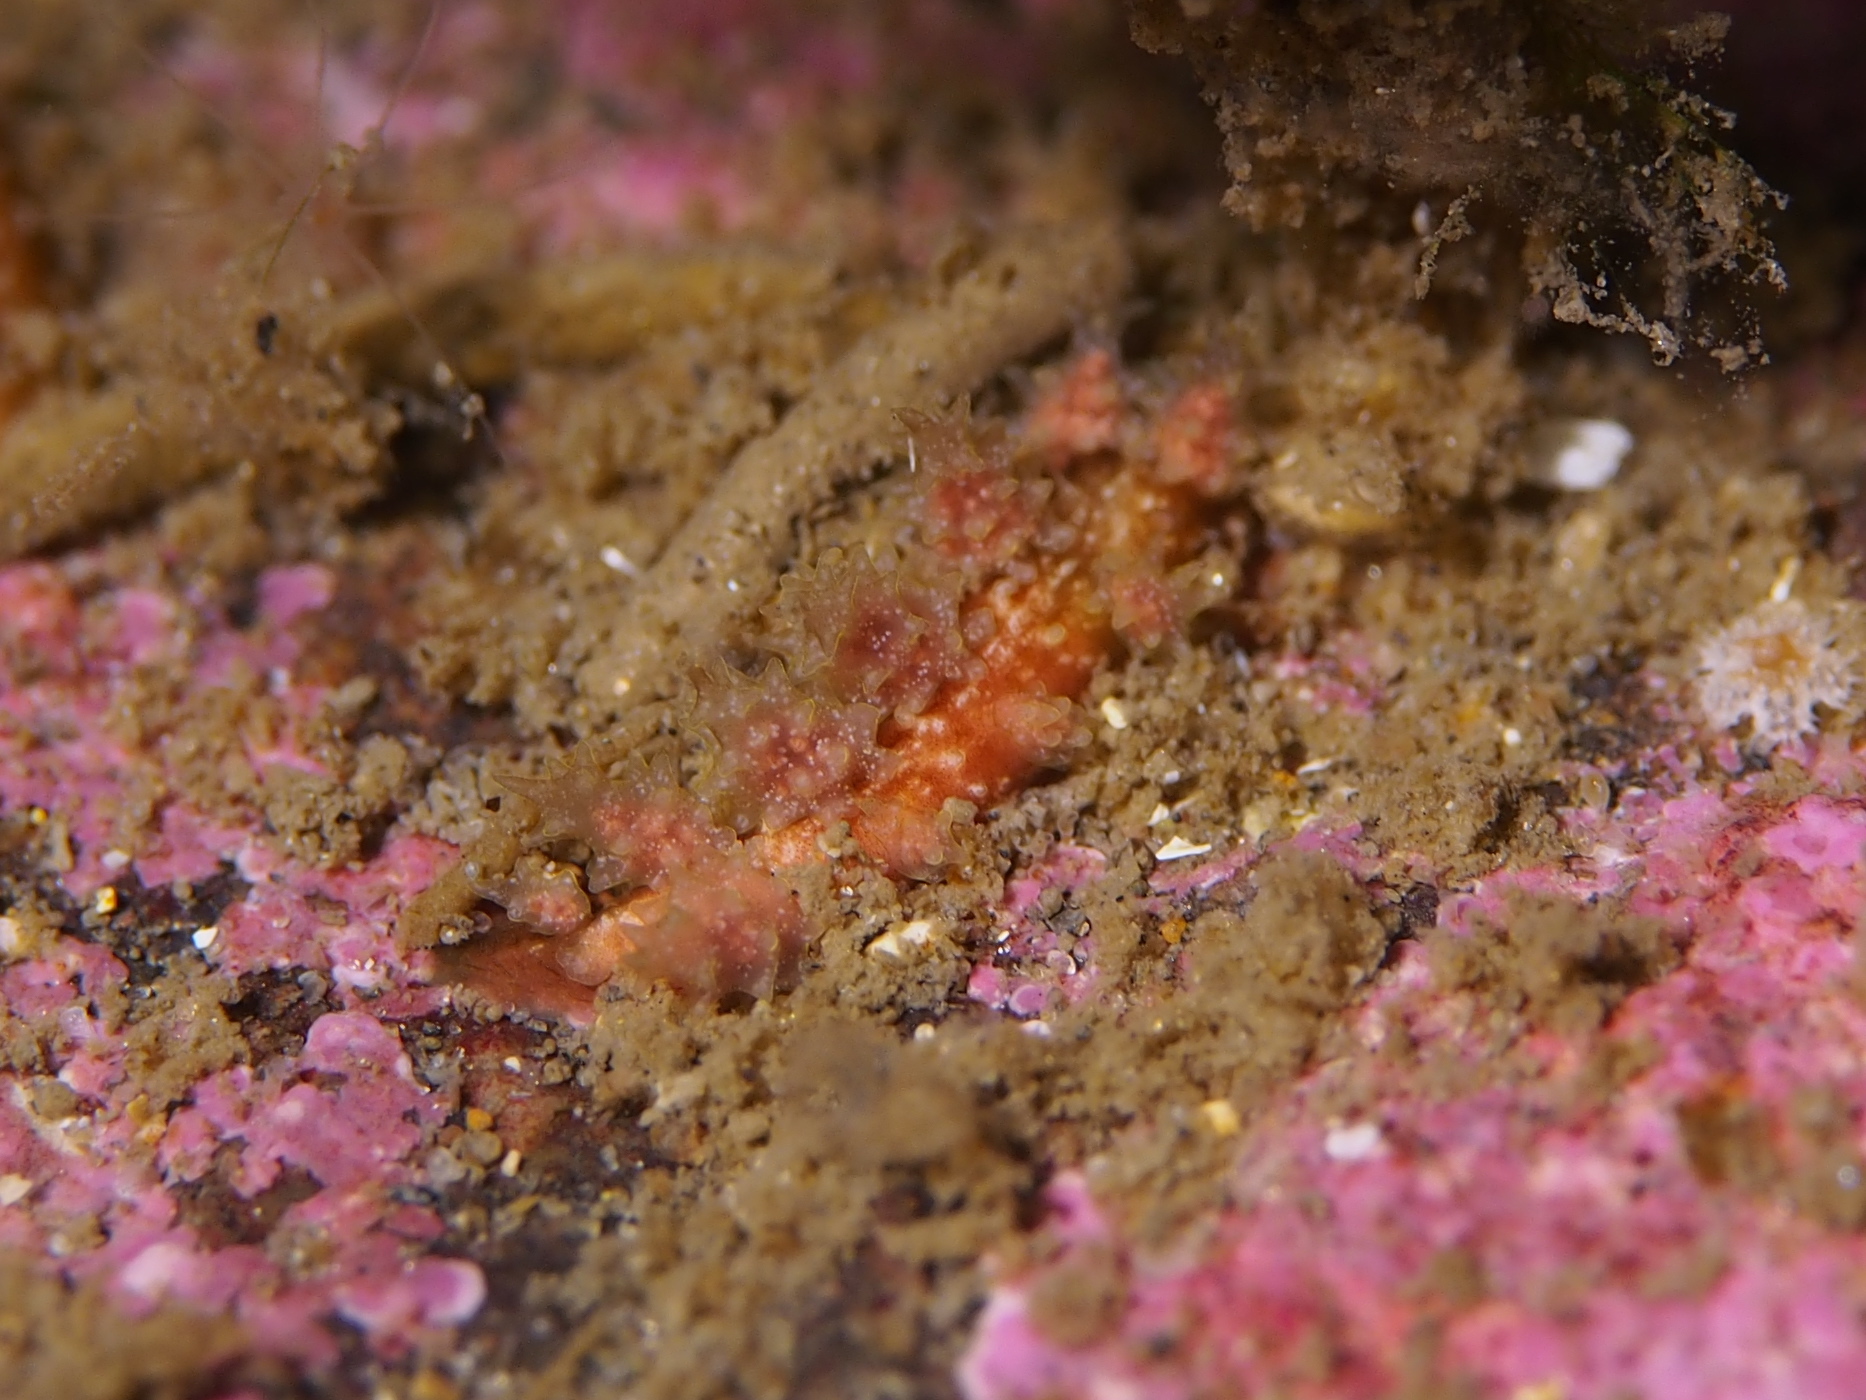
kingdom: Animalia
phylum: Mollusca
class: Gastropoda
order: Nudibranchia
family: Dotidae
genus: Doto
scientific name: Doto hystrix
